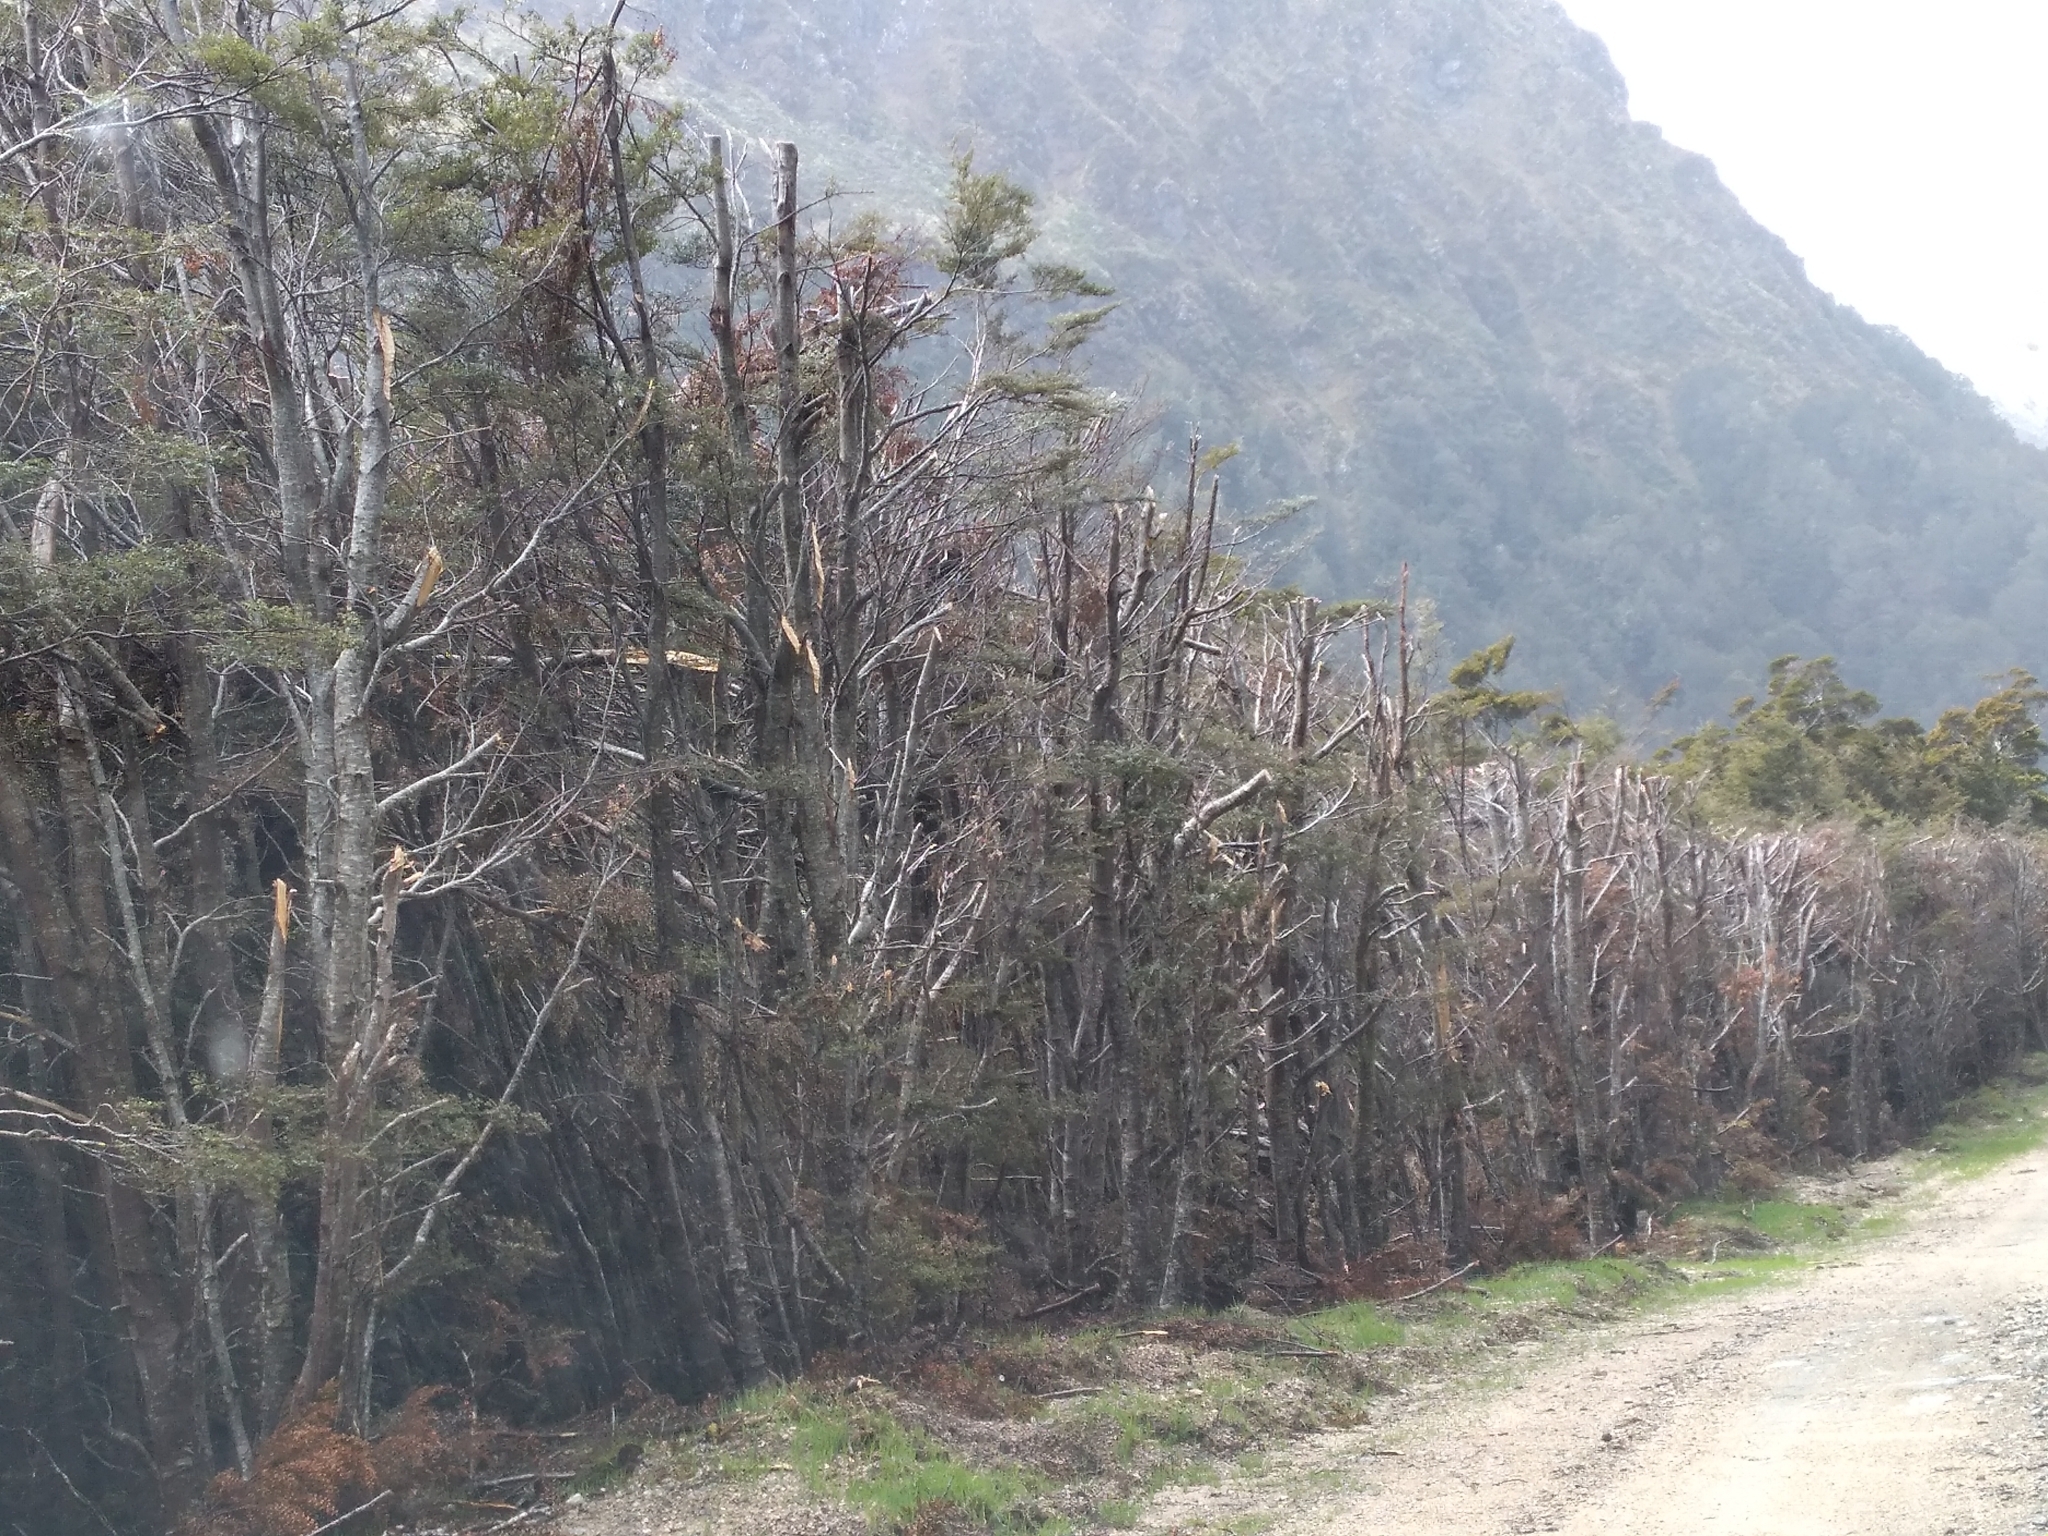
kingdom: Plantae
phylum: Tracheophyta
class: Magnoliopsida
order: Fagales
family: Nothofagaceae
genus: Nothofagus
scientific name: Nothofagus menziesii
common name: Silver beech
